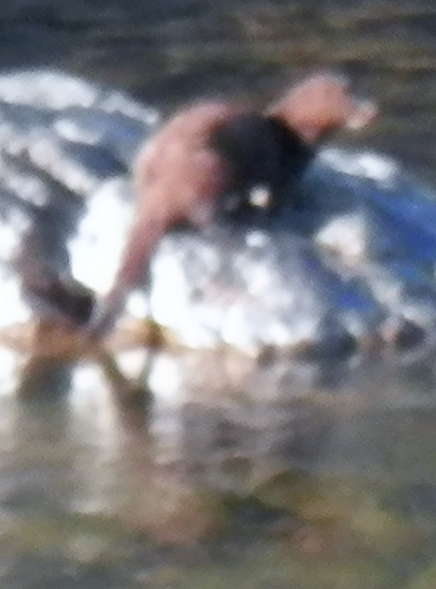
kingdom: Animalia
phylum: Chordata
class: Mammalia
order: Carnivora
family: Mustelidae
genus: Mustela
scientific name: Mustela
